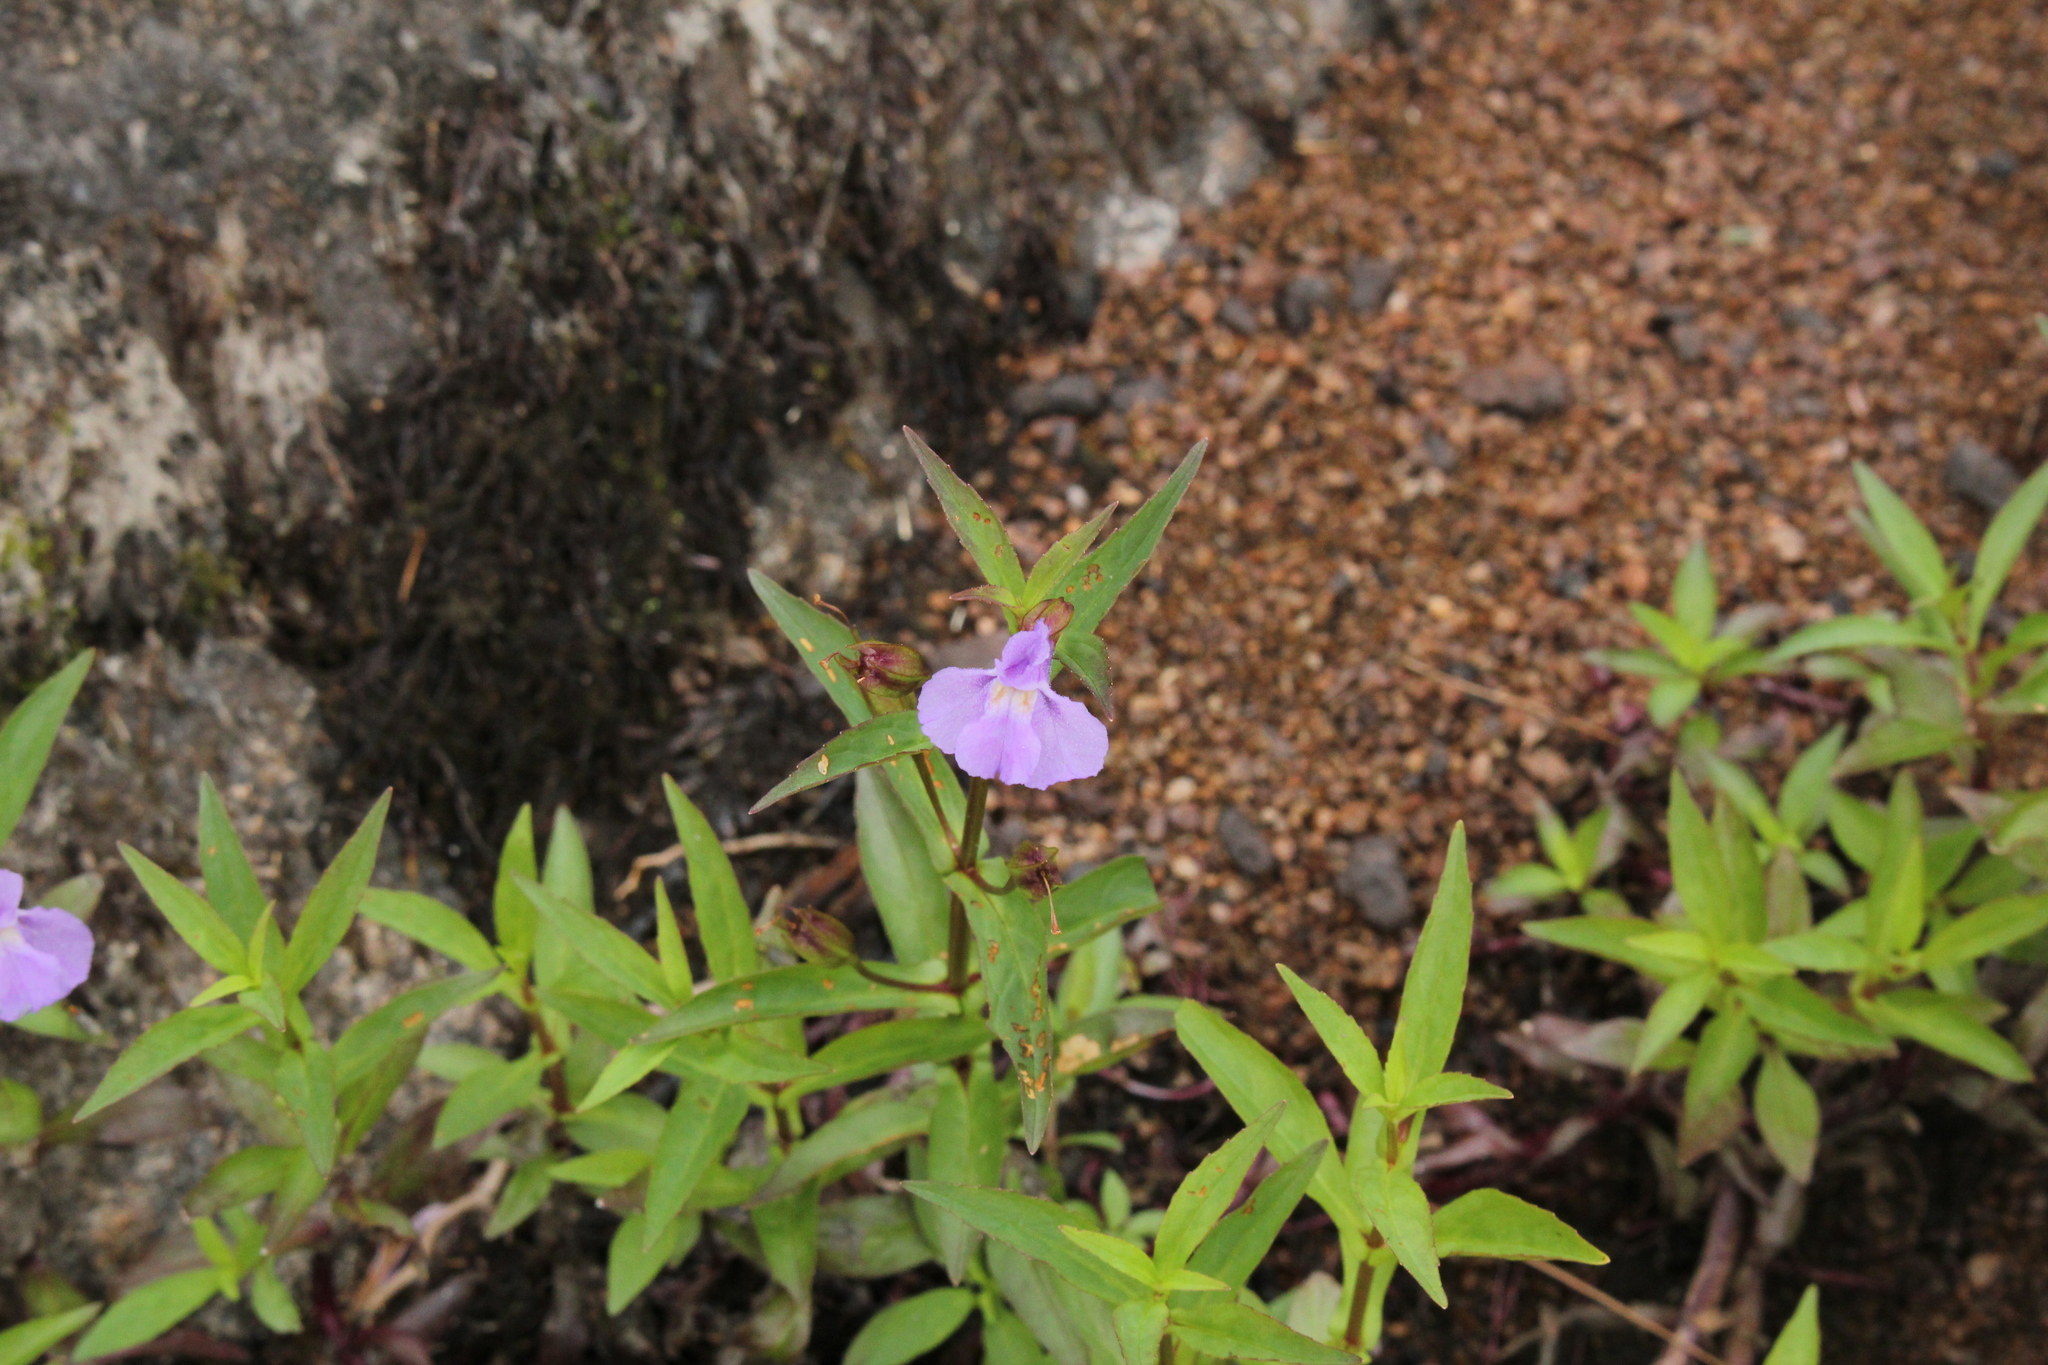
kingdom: Plantae
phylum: Tracheophyta
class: Magnoliopsida
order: Lamiales
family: Phrymaceae
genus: Mimulus
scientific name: Mimulus ringens
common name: Allegheny monkeyflower
